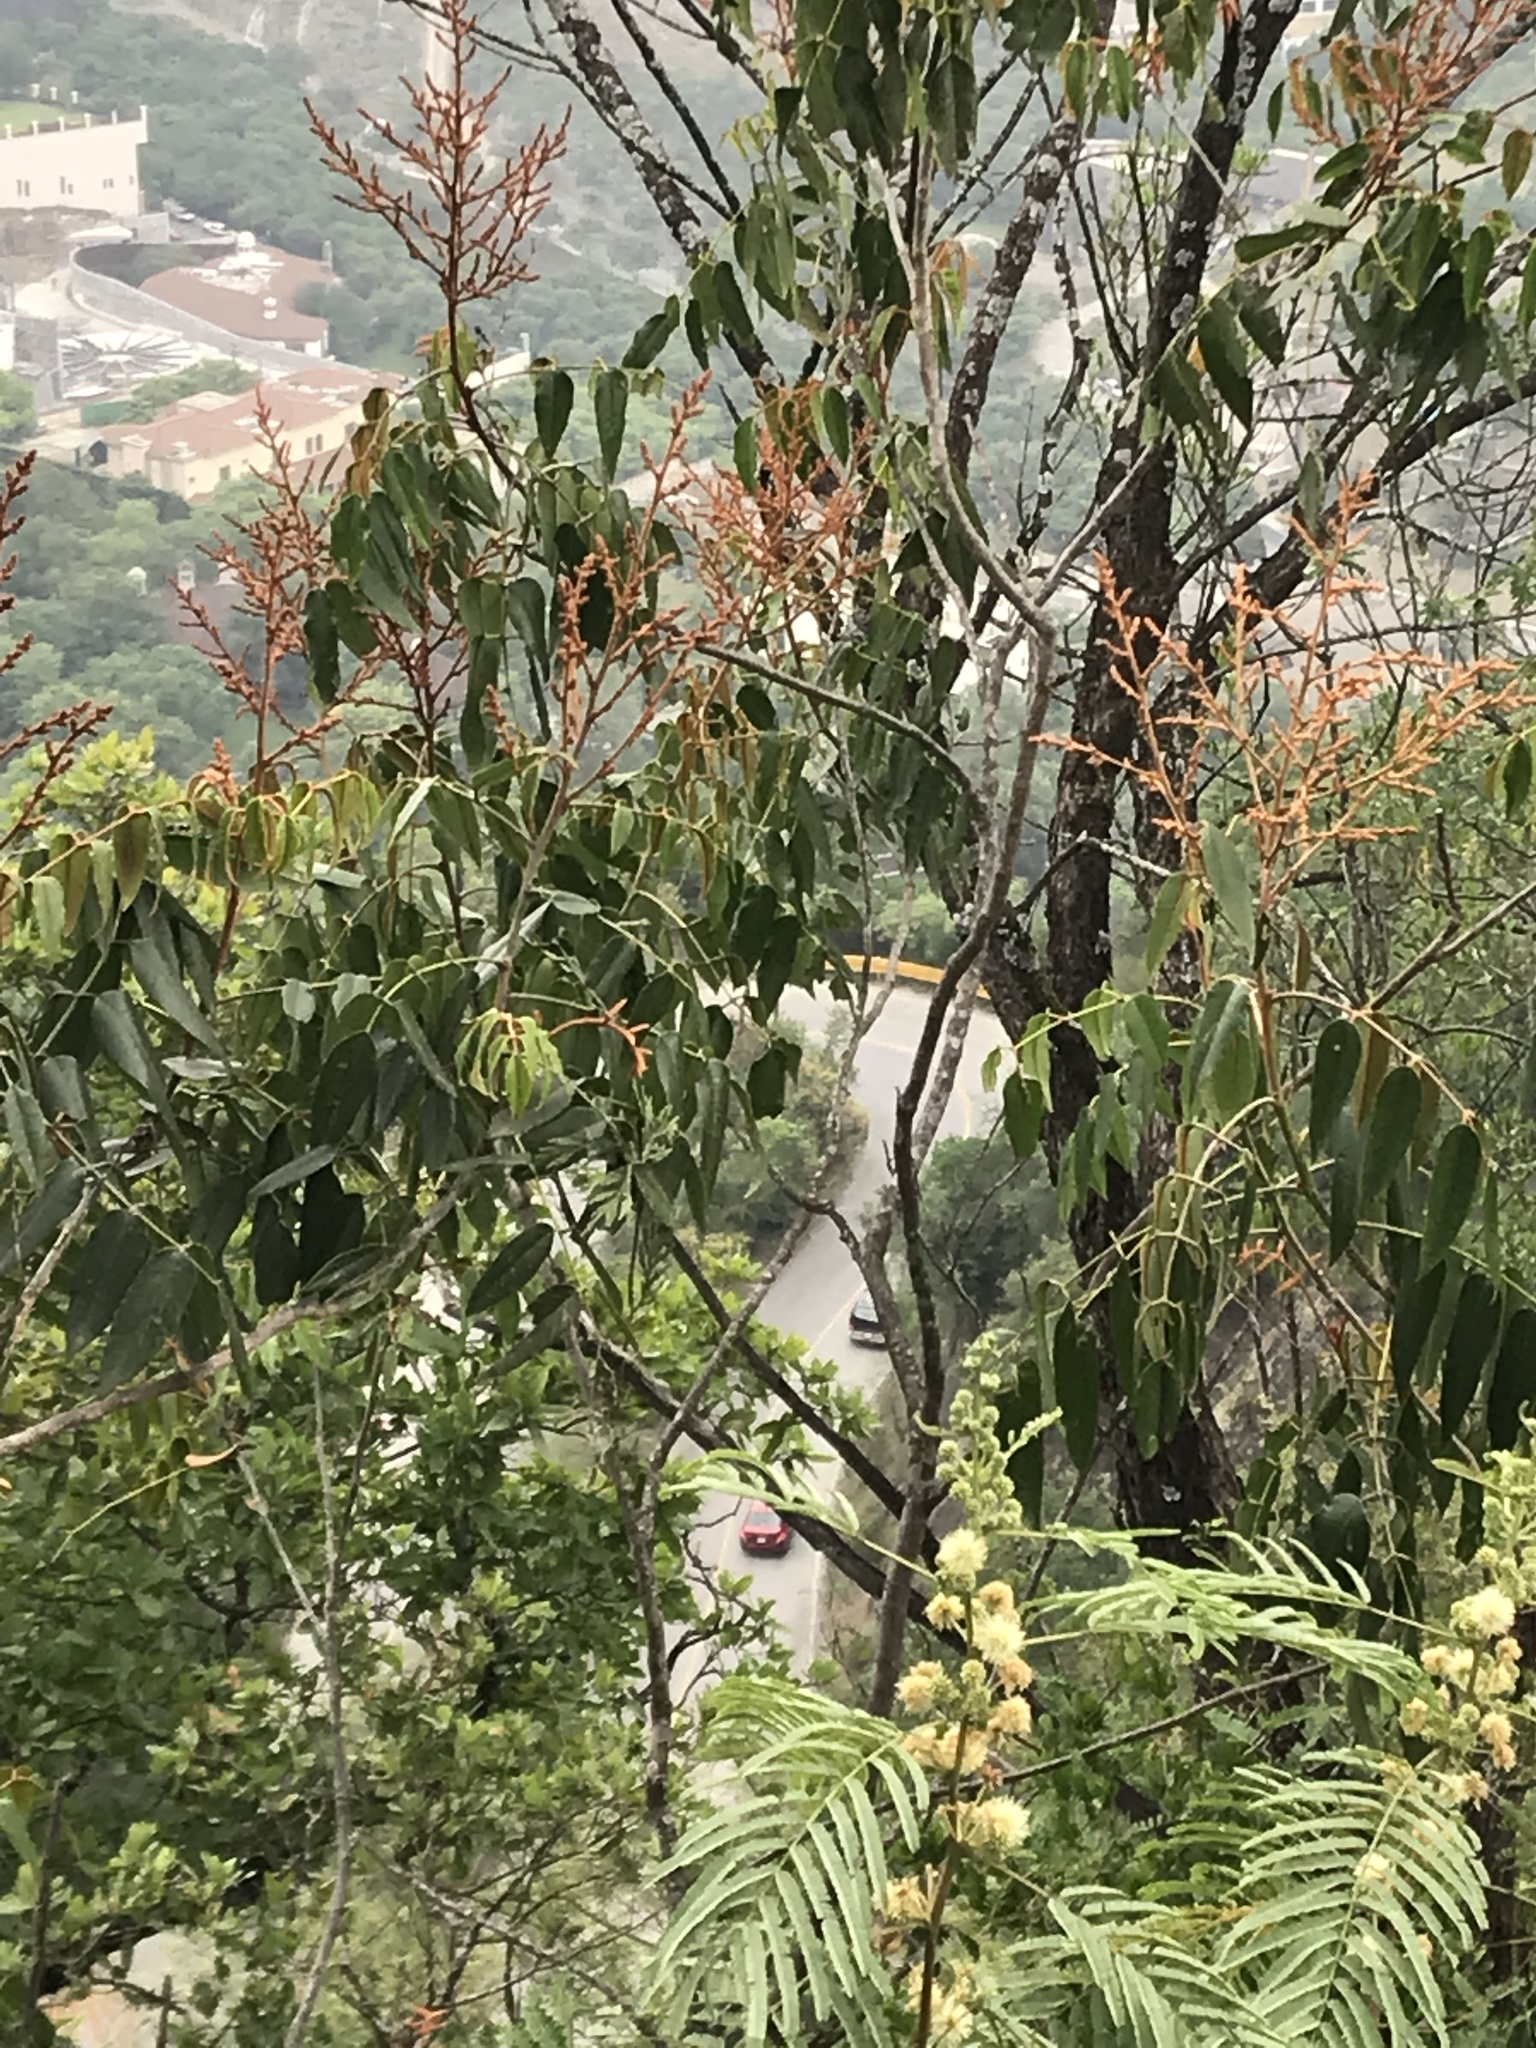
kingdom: Plantae
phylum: Tracheophyta
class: Magnoliopsida
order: Sapindales
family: Rutaceae
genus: Decatropis
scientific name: Decatropis bicolor
